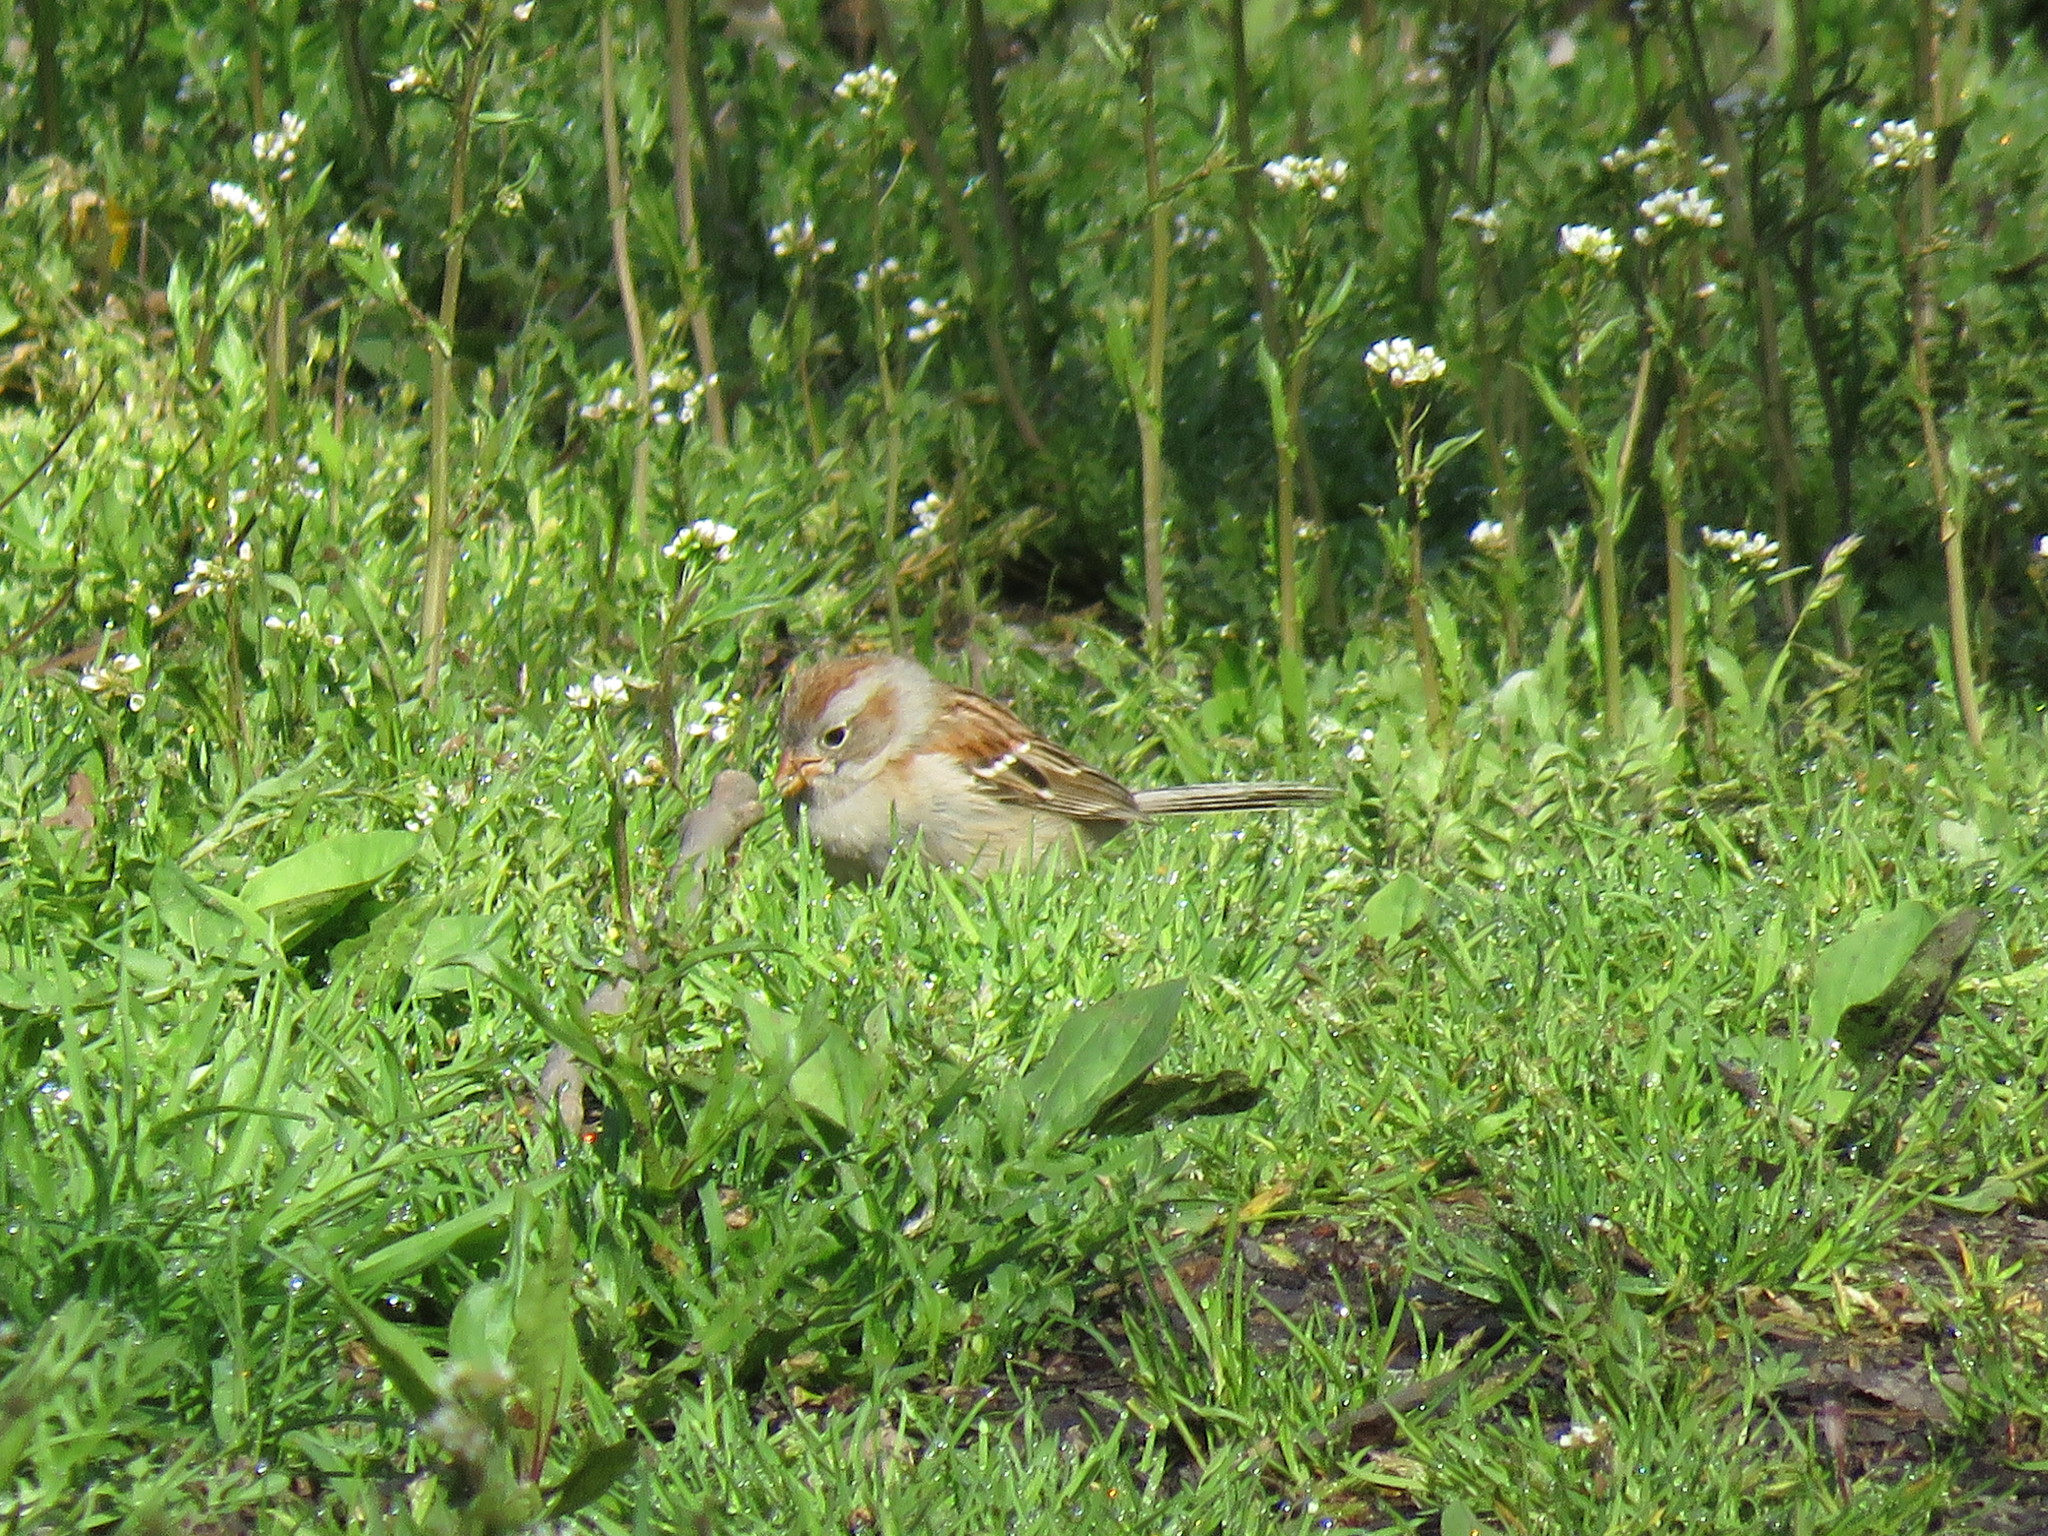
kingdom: Animalia
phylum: Chordata
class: Aves
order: Passeriformes
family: Passerellidae
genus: Spizella
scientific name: Spizella pusilla
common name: Field sparrow
